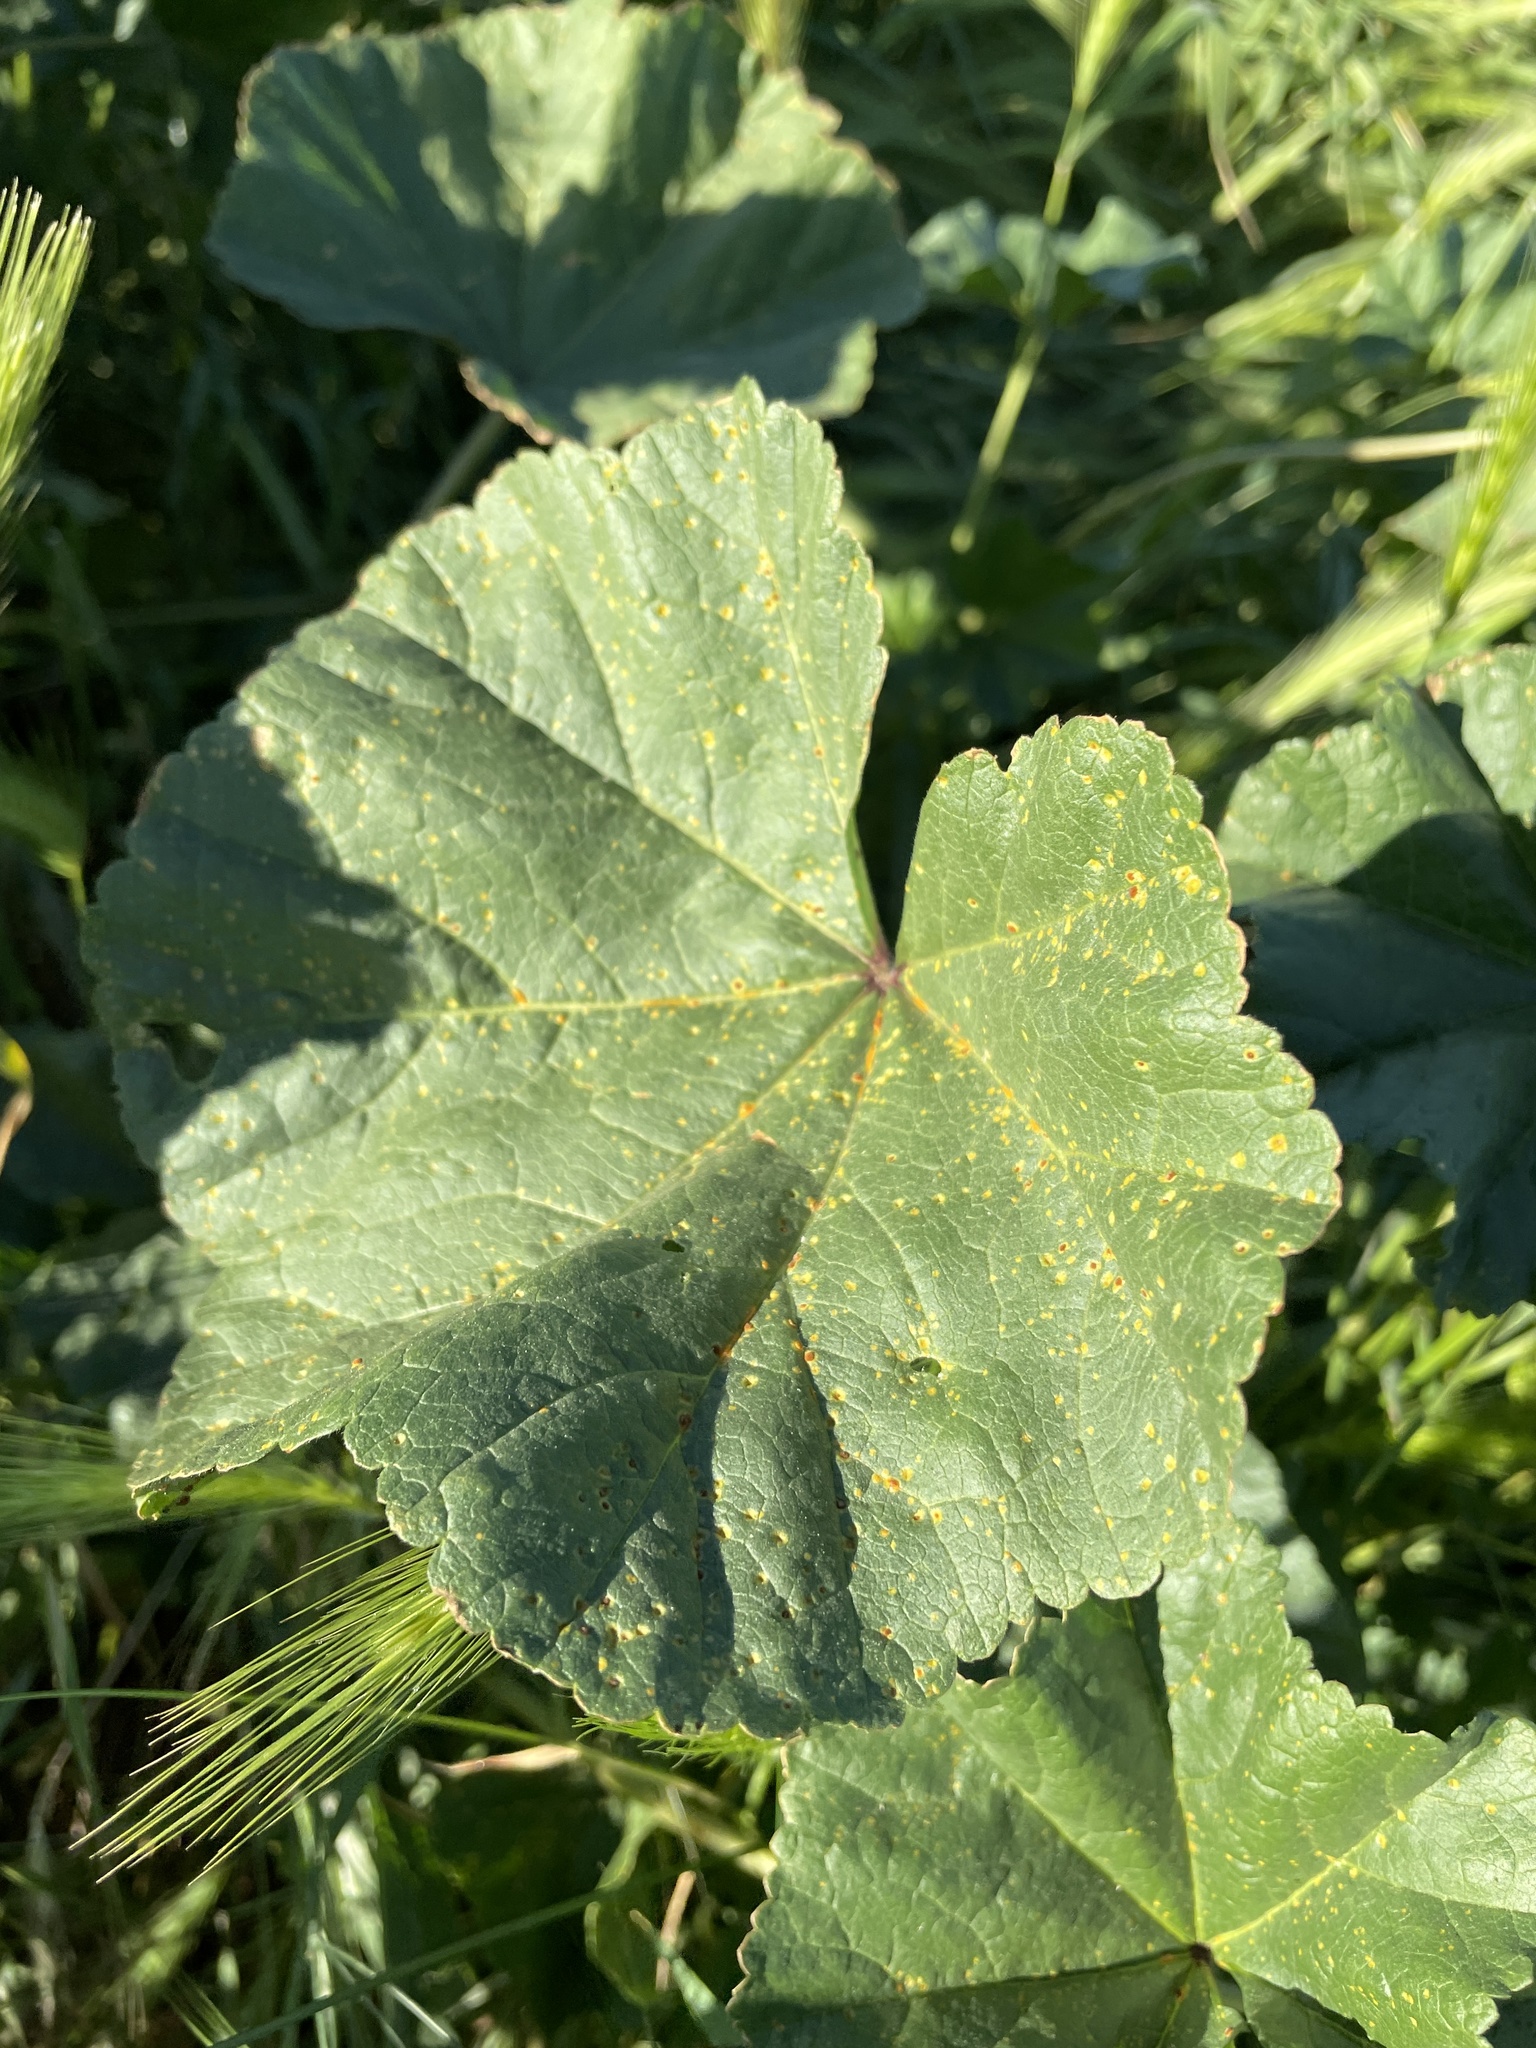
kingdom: Plantae
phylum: Tracheophyta
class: Magnoliopsida
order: Malvales
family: Malvaceae
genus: Malva
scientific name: Malva
